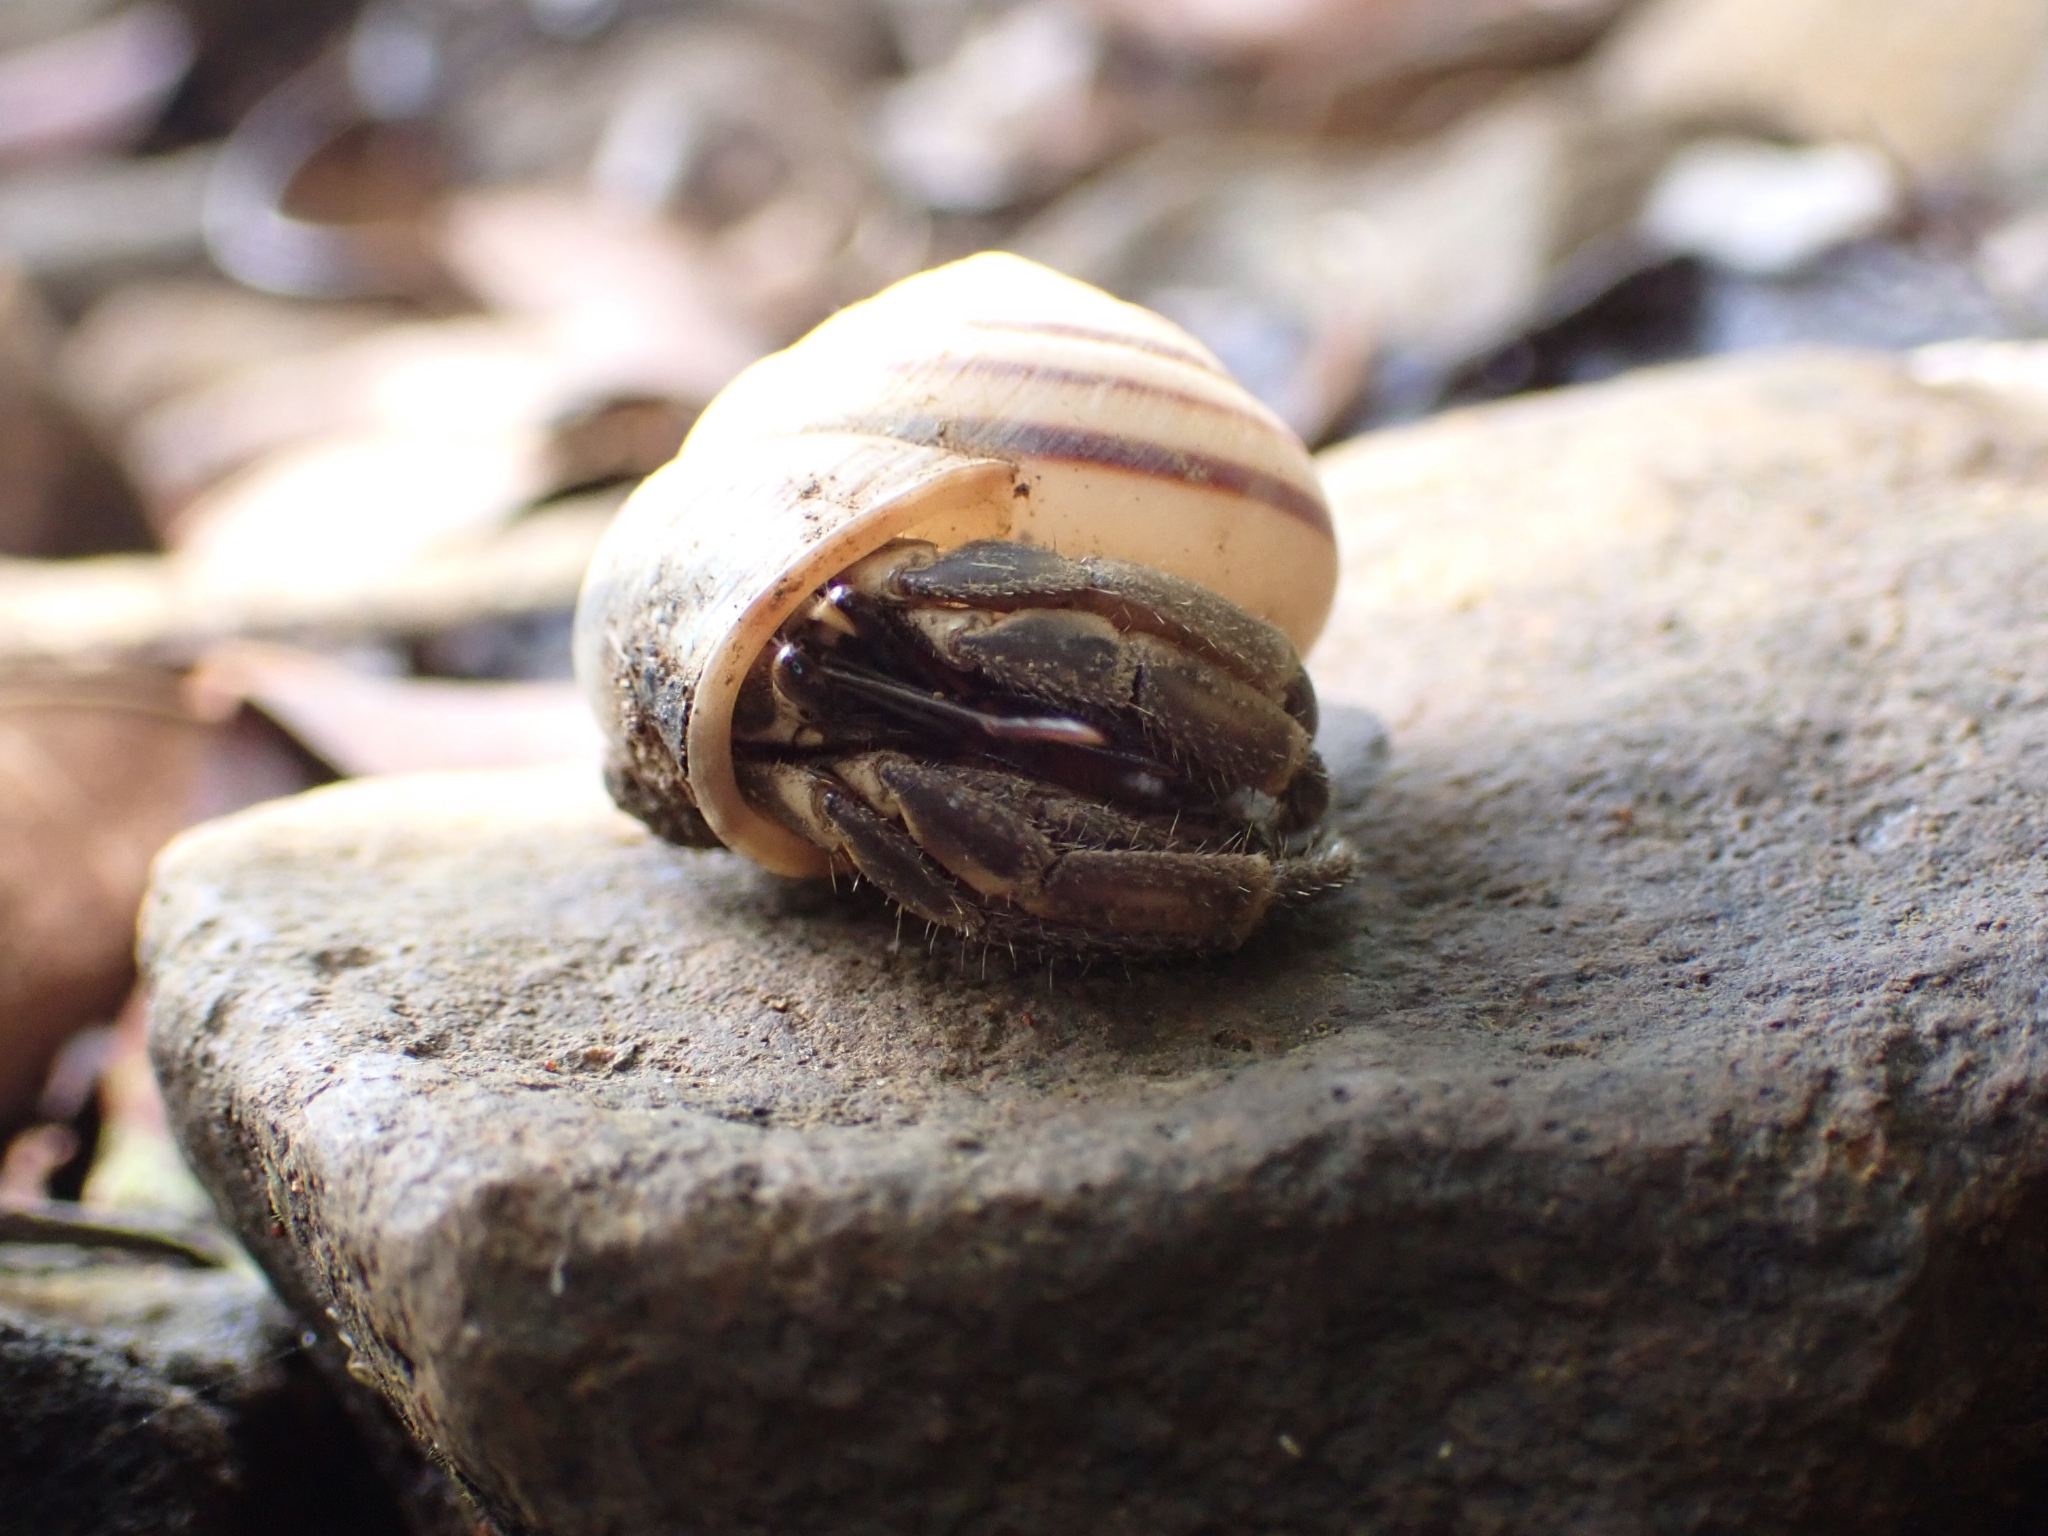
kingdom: Animalia
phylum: Arthropoda
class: Malacostraca
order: Decapoda
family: Coenobitidae
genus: Coenobita
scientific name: Coenobita cavipes
